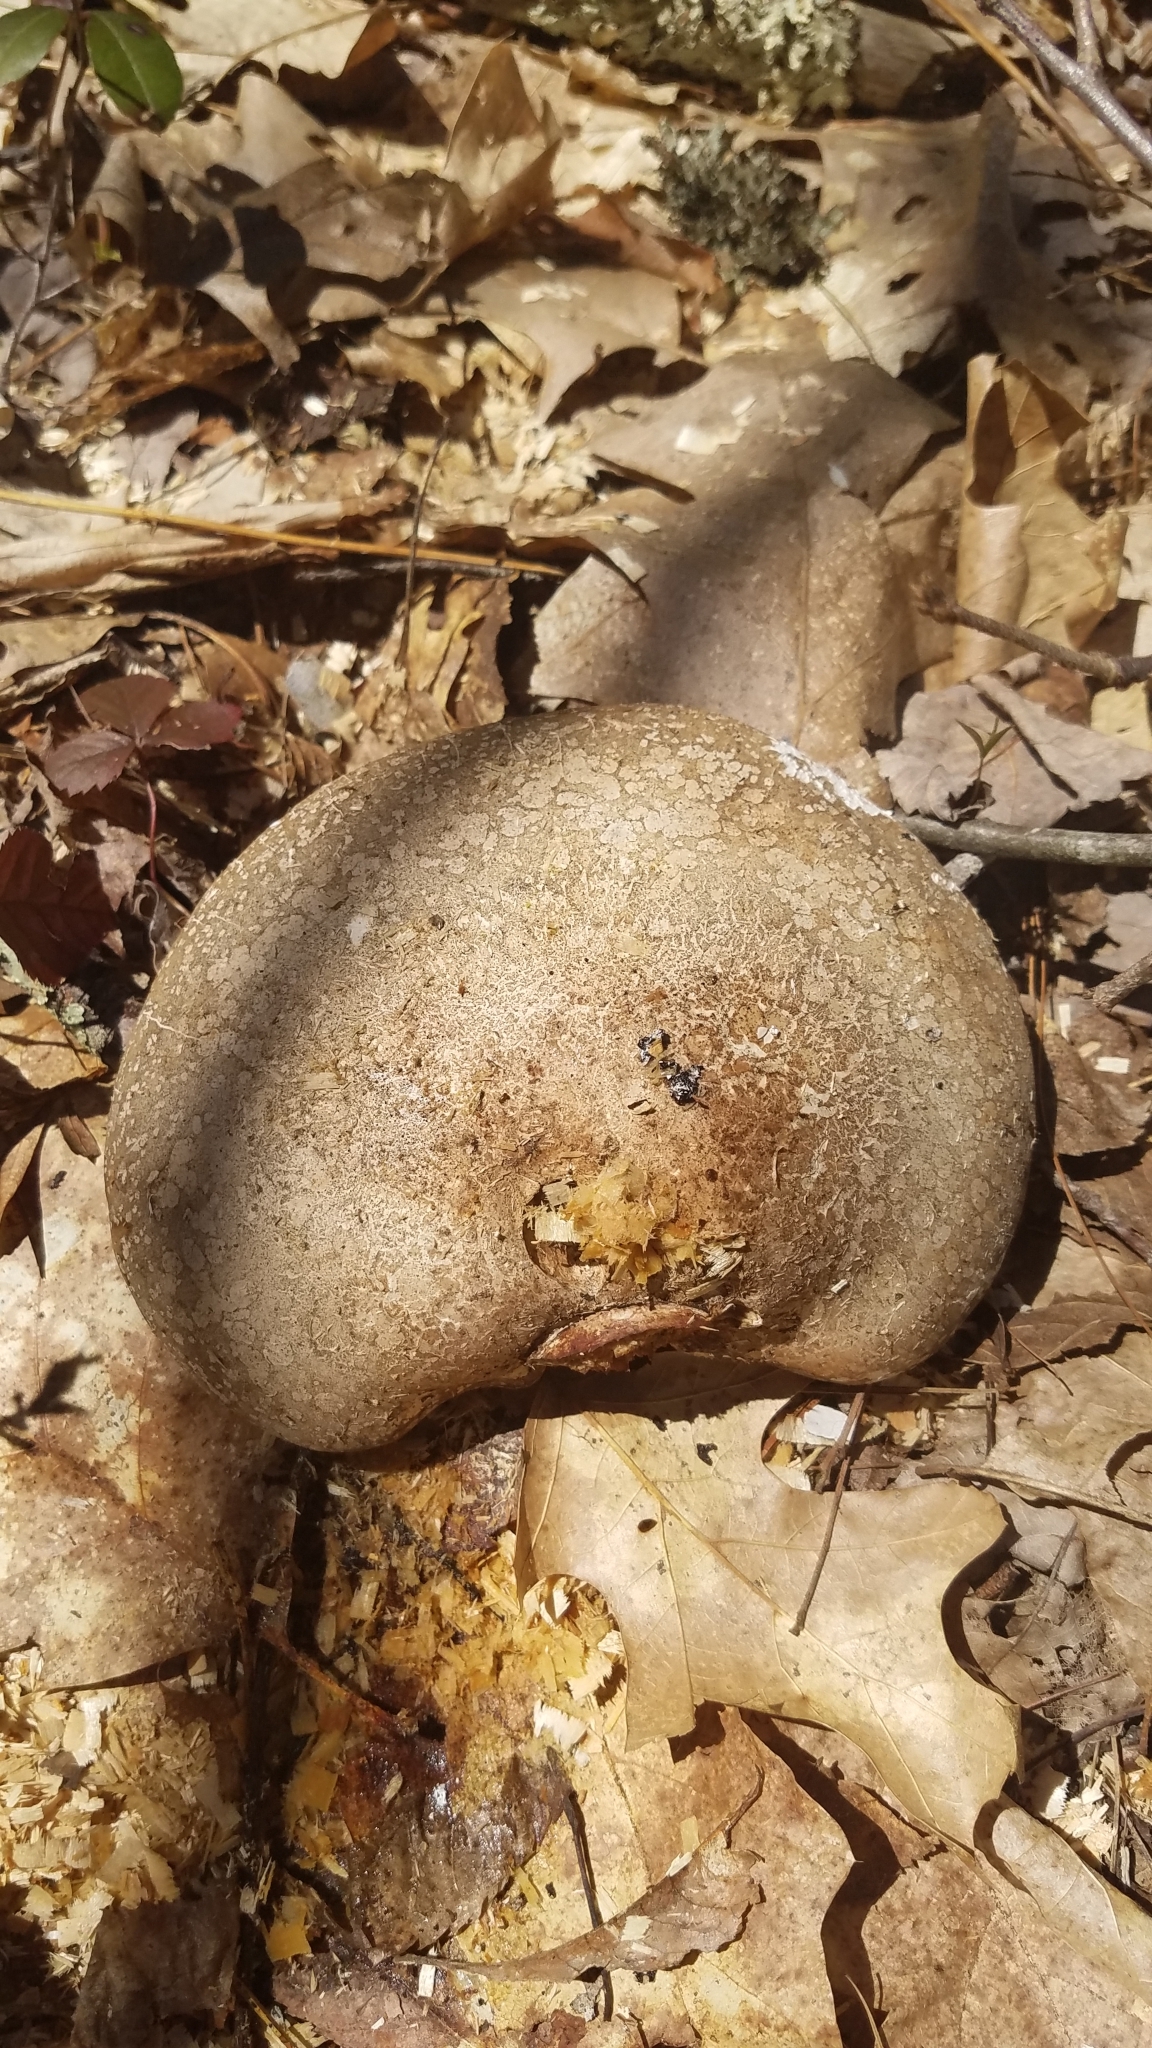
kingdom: Fungi
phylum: Basidiomycota
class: Agaricomycetes
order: Polyporales
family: Fomitopsidaceae
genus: Fomitopsis
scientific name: Fomitopsis betulina
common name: Birch polypore
